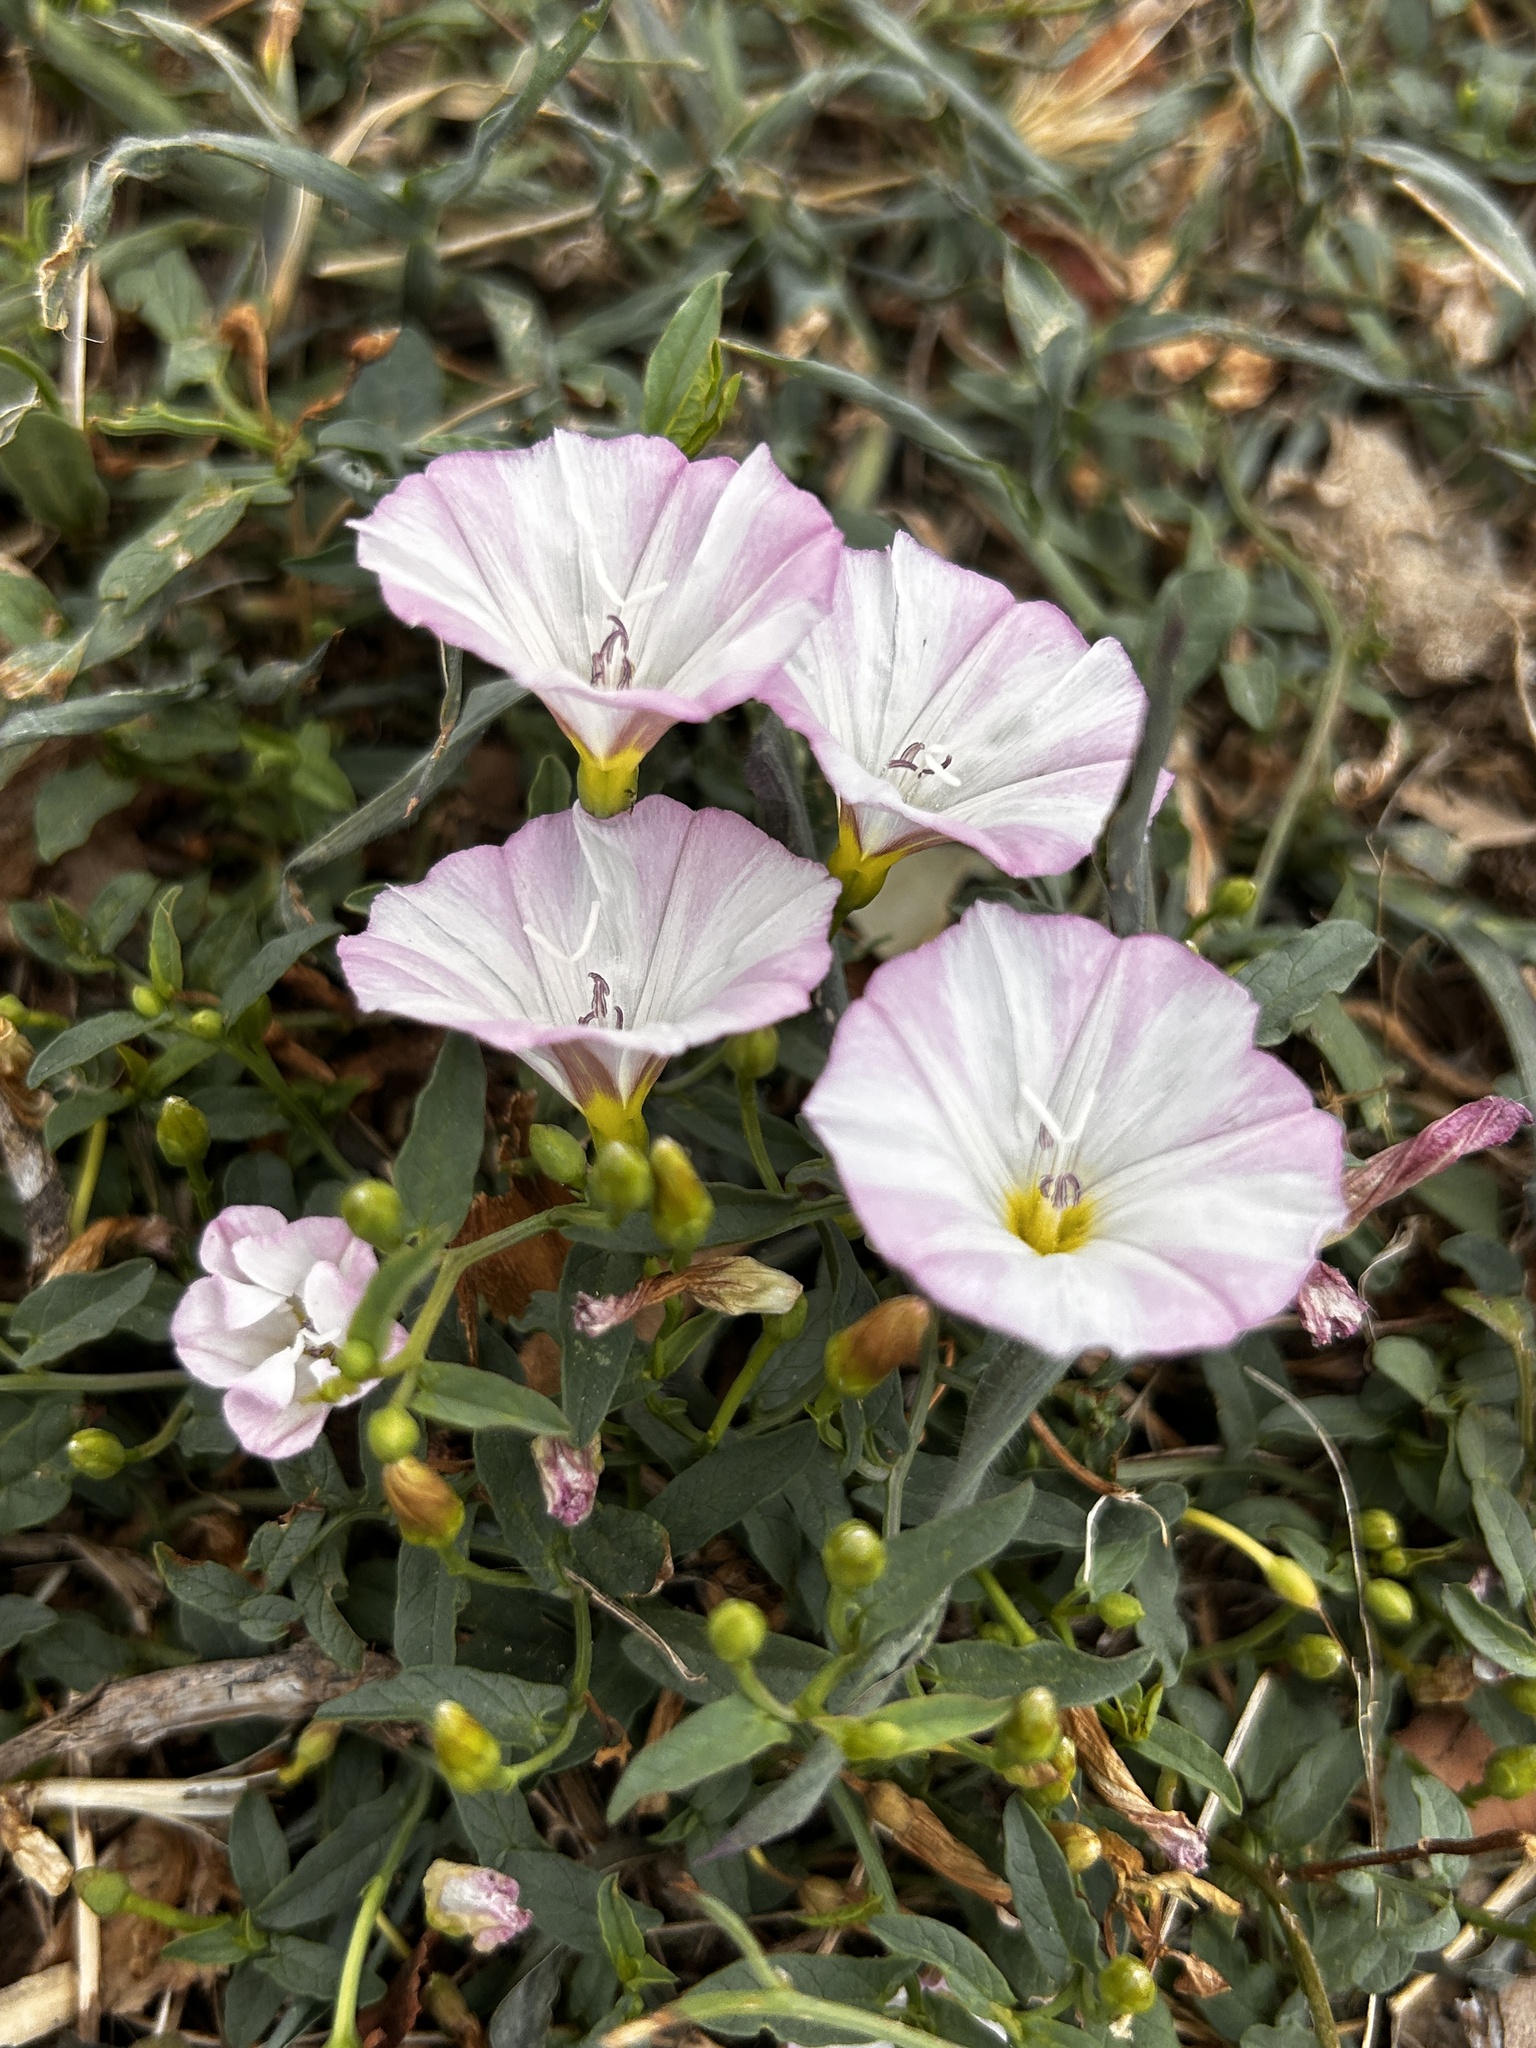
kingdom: Plantae
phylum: Tracheophyta
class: Magnoliopsida
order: Solanales
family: Convolvulaceae
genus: Convolvulus
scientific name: Convolvulus arvensis
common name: Field bindweed
